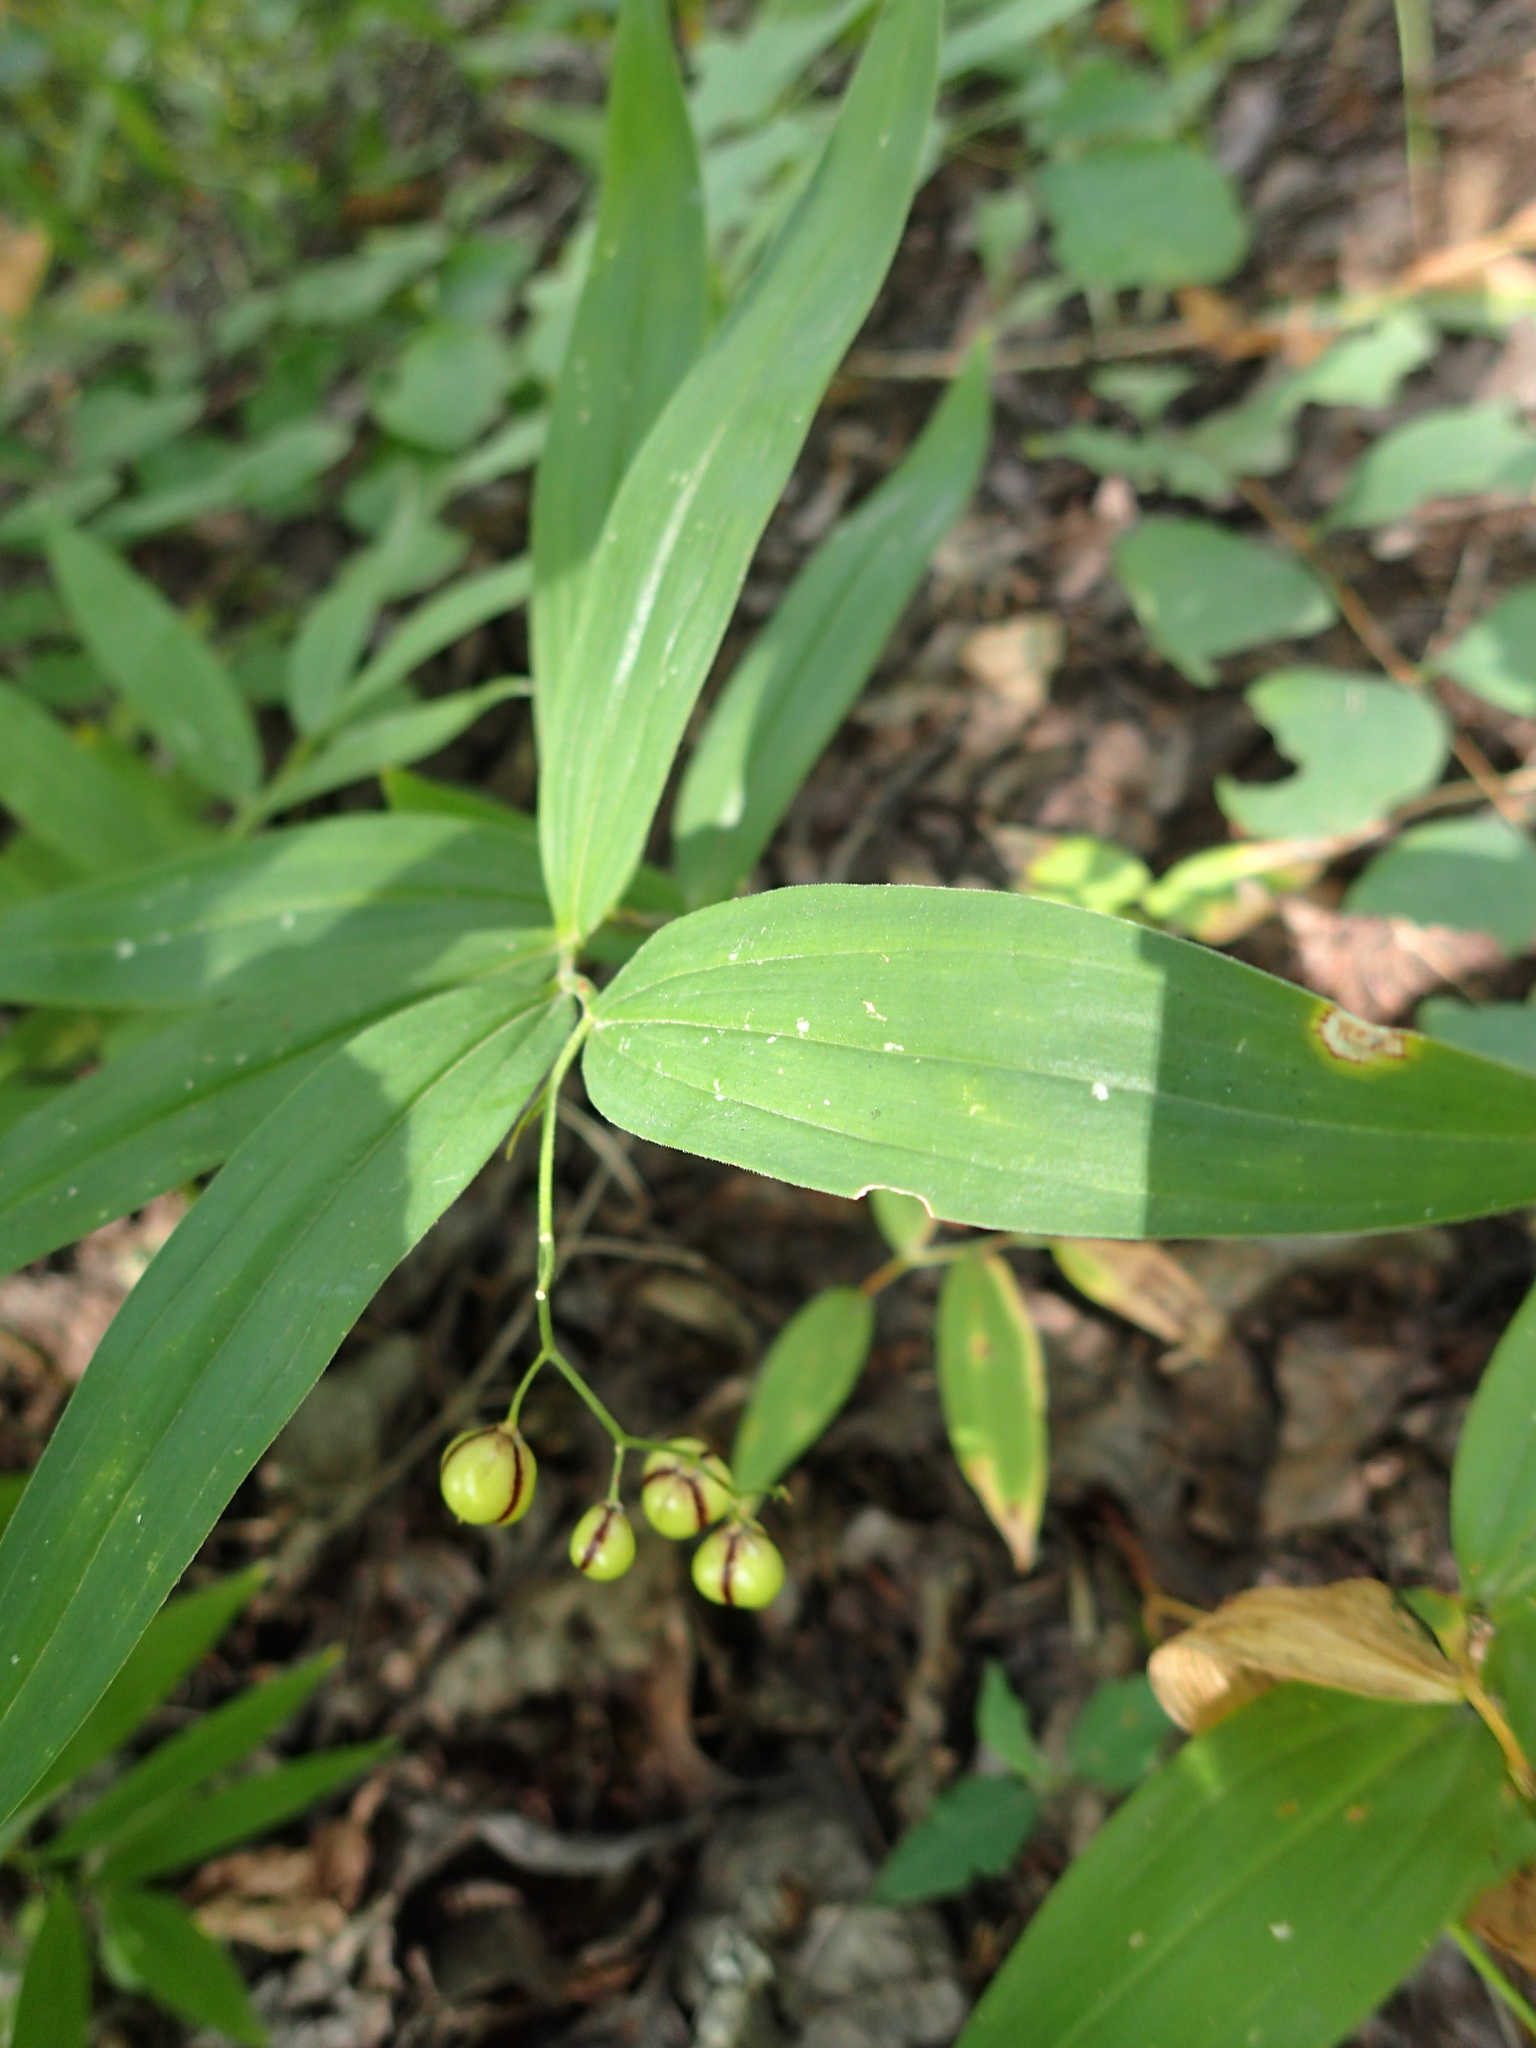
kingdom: Plantae
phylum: Tracheophyta
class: Liliopsida
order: Asparagales
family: Asparagaceae
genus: Maianthemum
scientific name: Maianthemum stellatum
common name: Little false solomon's seal
